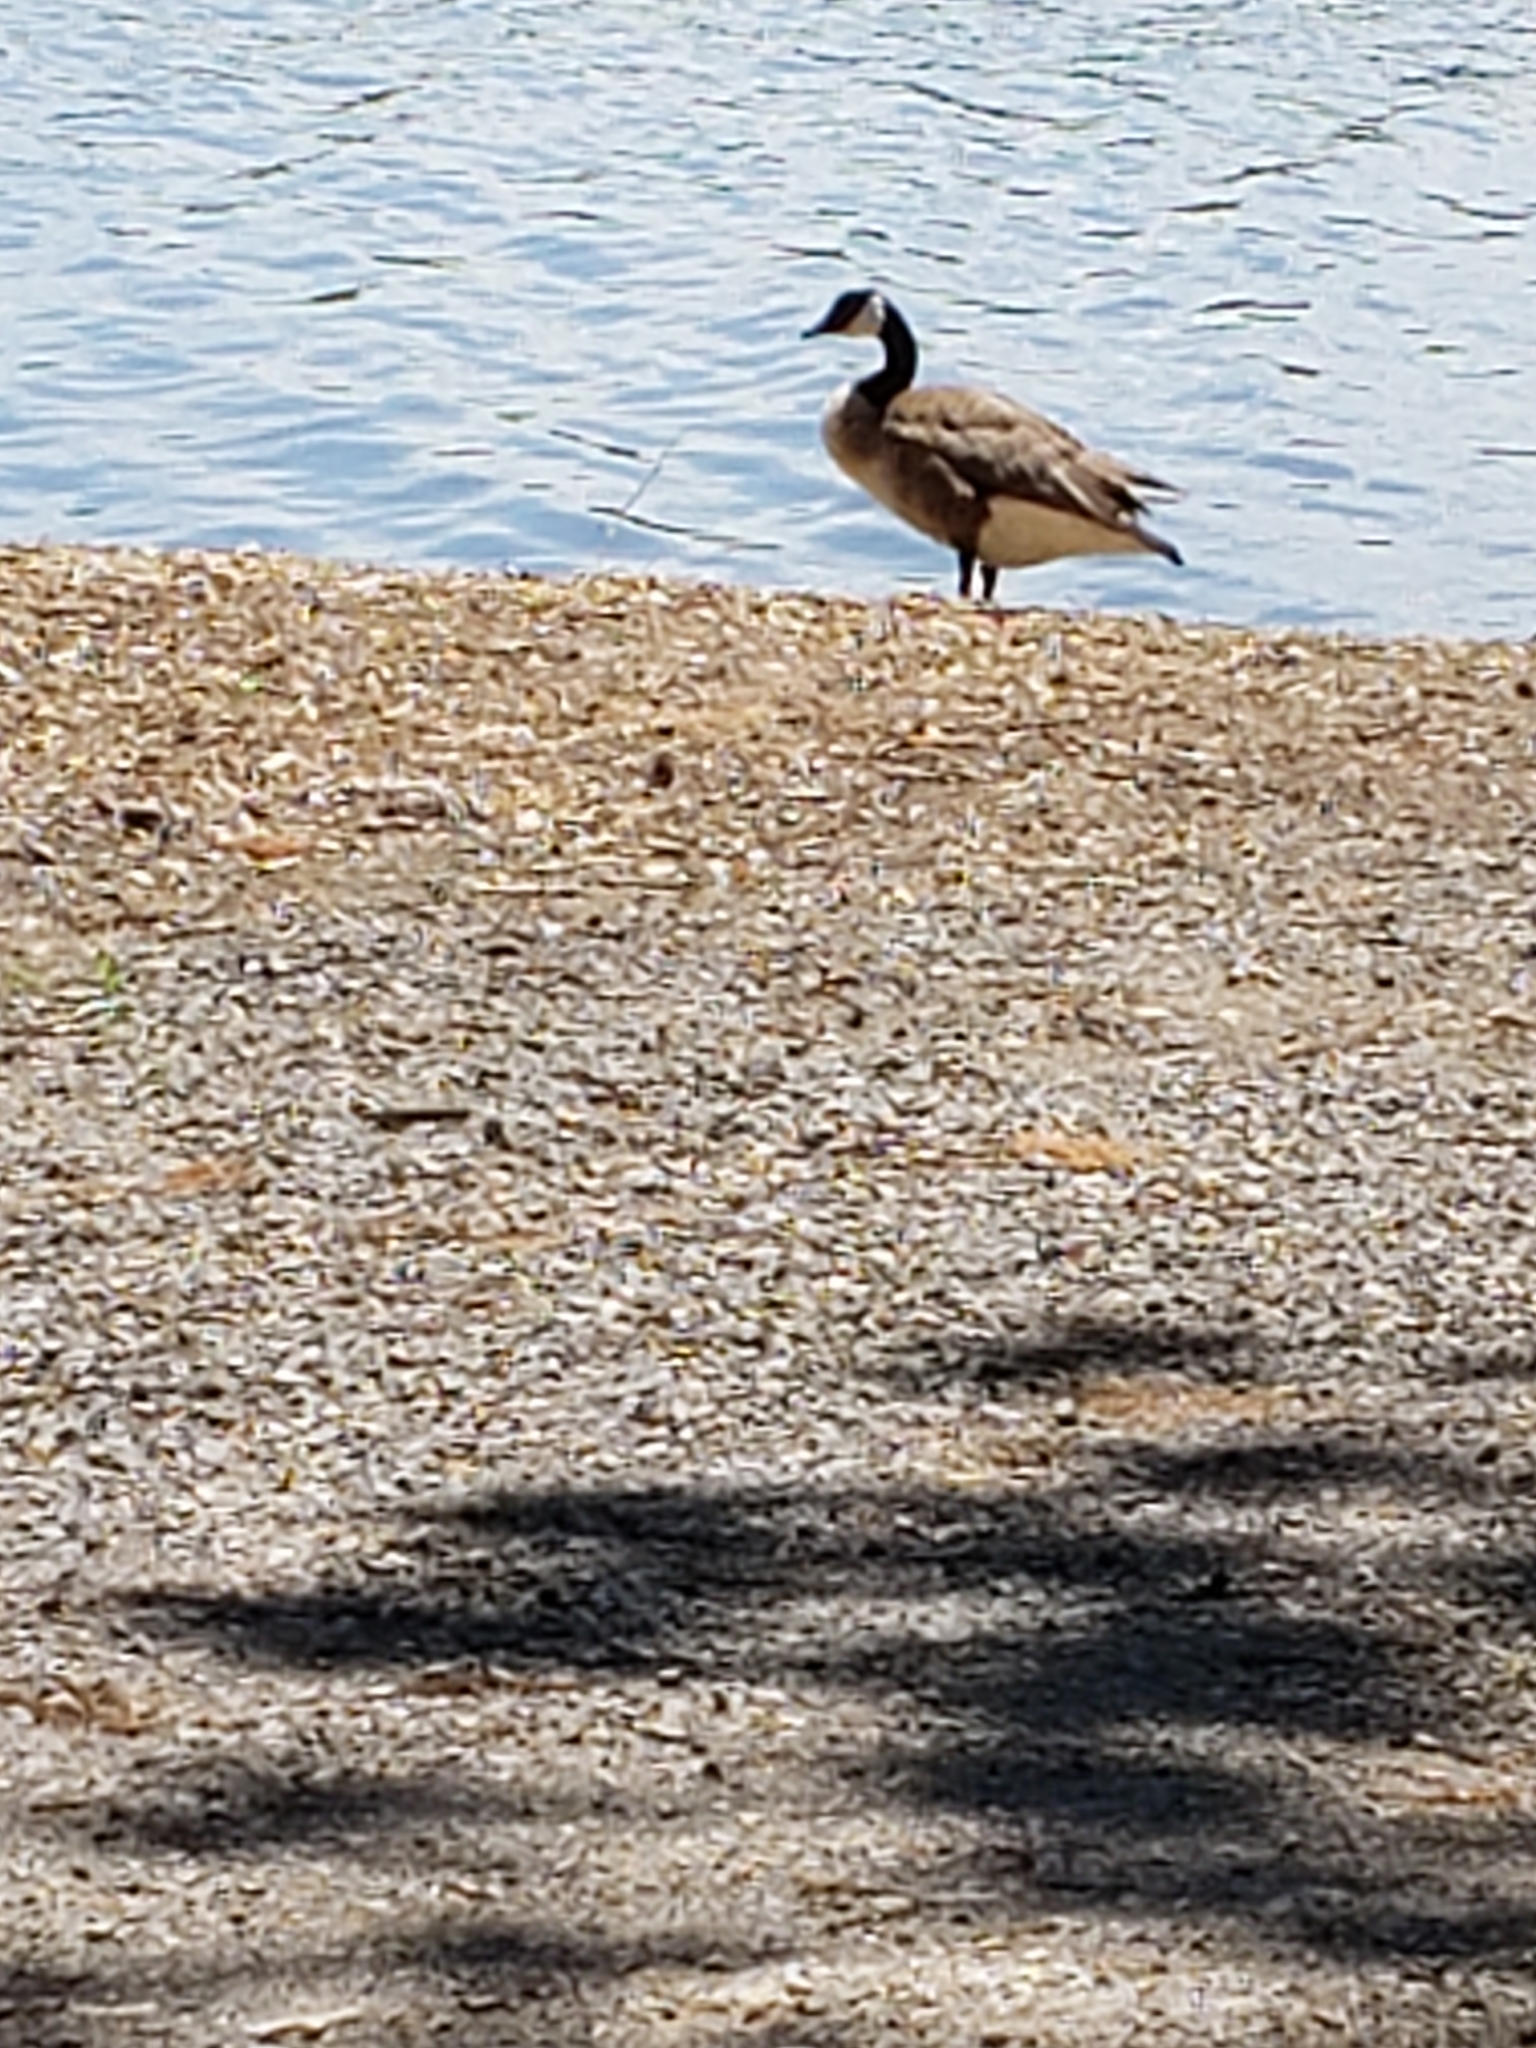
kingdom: Animalia
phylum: Chordata
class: Aves
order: Anseriformes
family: Anatidae
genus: Branta
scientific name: Branta canadensis
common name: Canada goose
